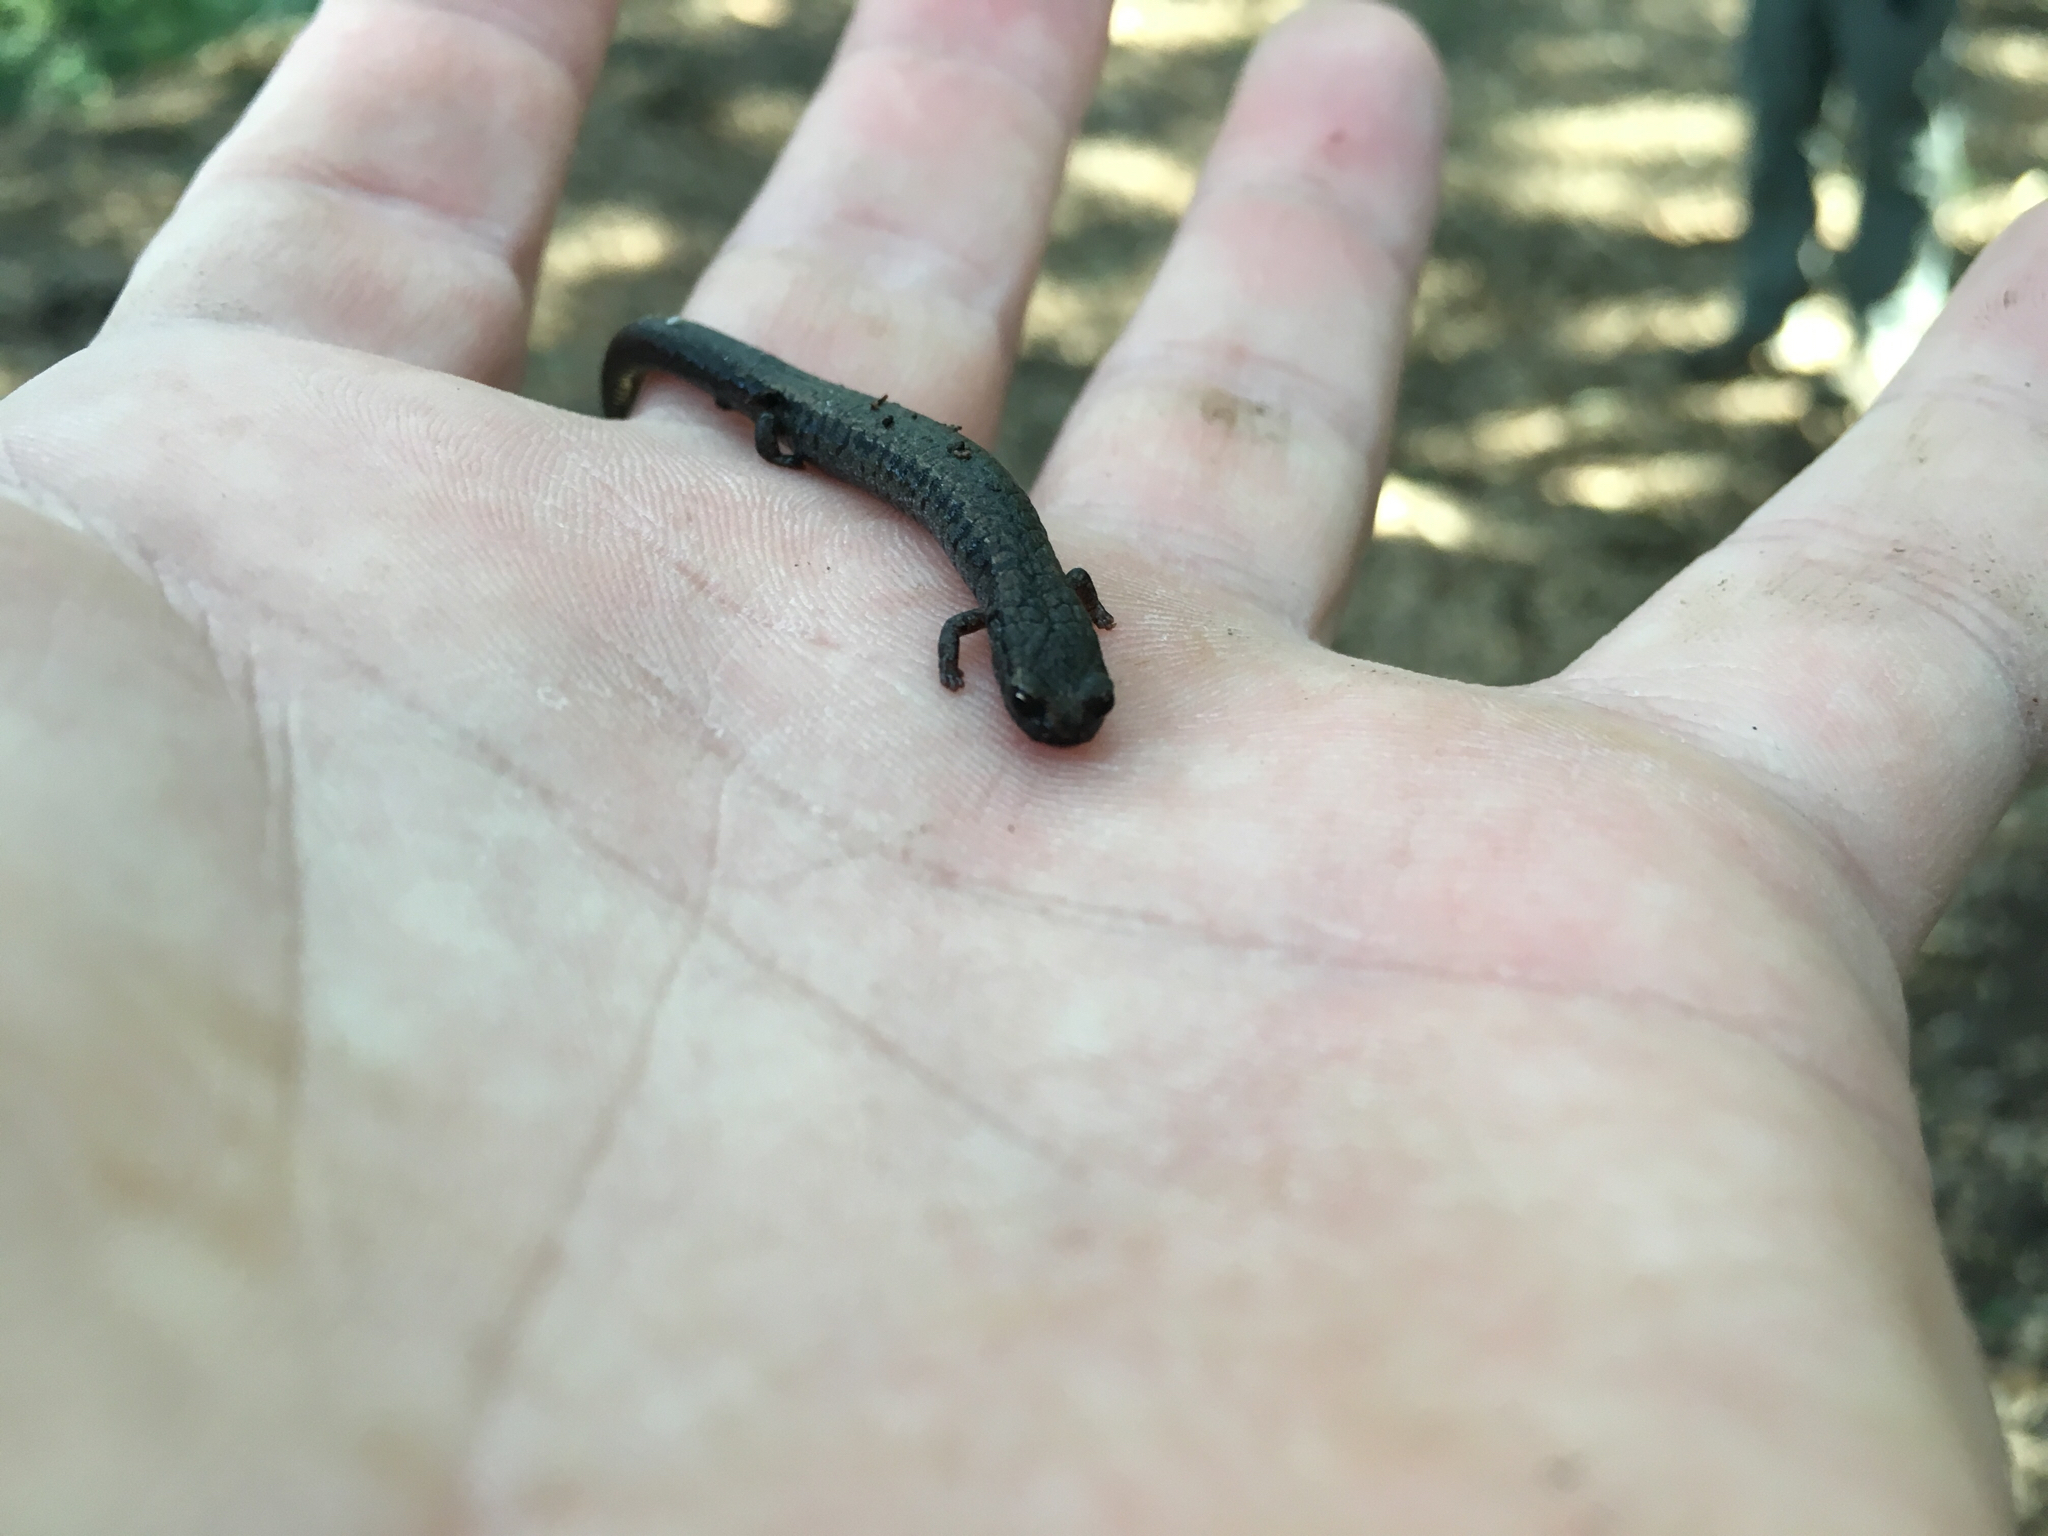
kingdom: Animalia
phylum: Chordata
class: Amphibia
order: Caudata
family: Plethodontidae
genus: Batrachoseps
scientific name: Batrachoseps attenuatus
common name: California slender salamander
